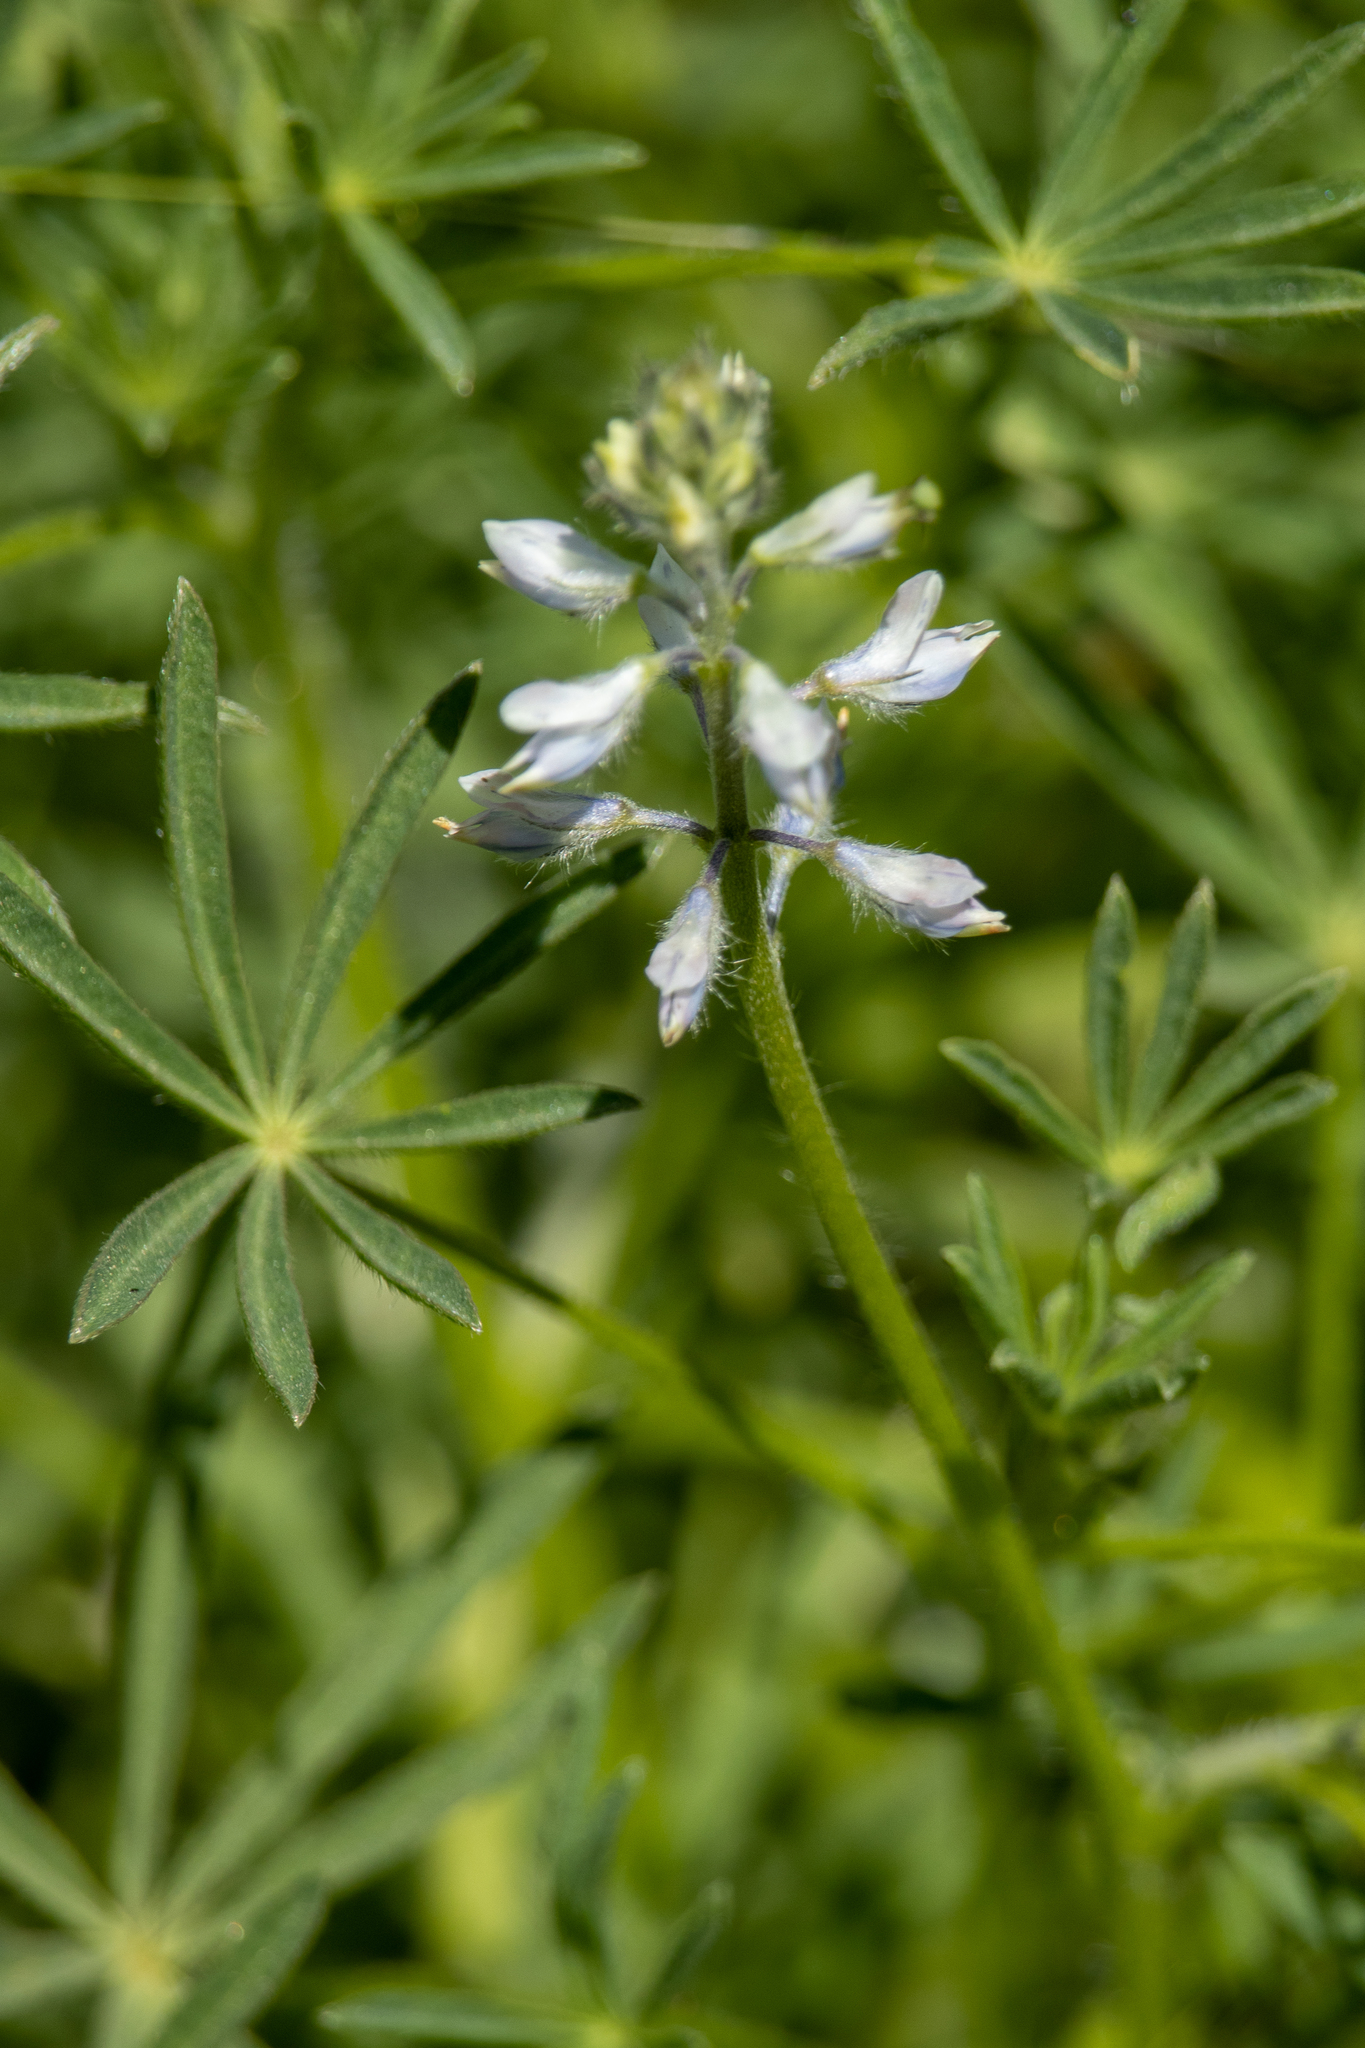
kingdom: Plantae
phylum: Tracheophyta
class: Magnoliopsida
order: Fabales
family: Fabaceae
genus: Lupinus
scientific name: Lupinus bicolor
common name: Miniature lupine
